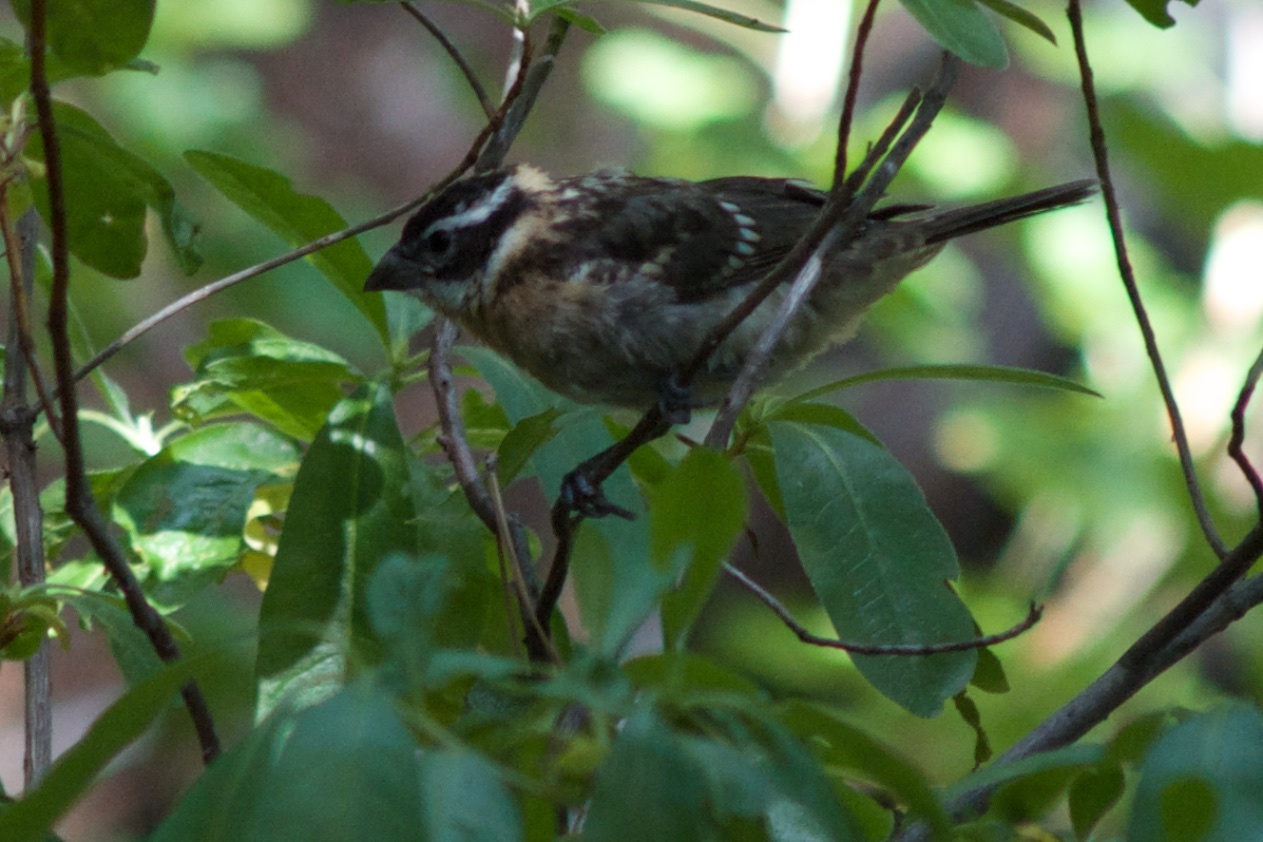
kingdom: Animalia
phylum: Chordata
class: Aves
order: Passeriformes
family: Cardinalidae
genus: Pheucticus
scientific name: Pheucticus melanocephalus
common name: Black-headed grosbeak
